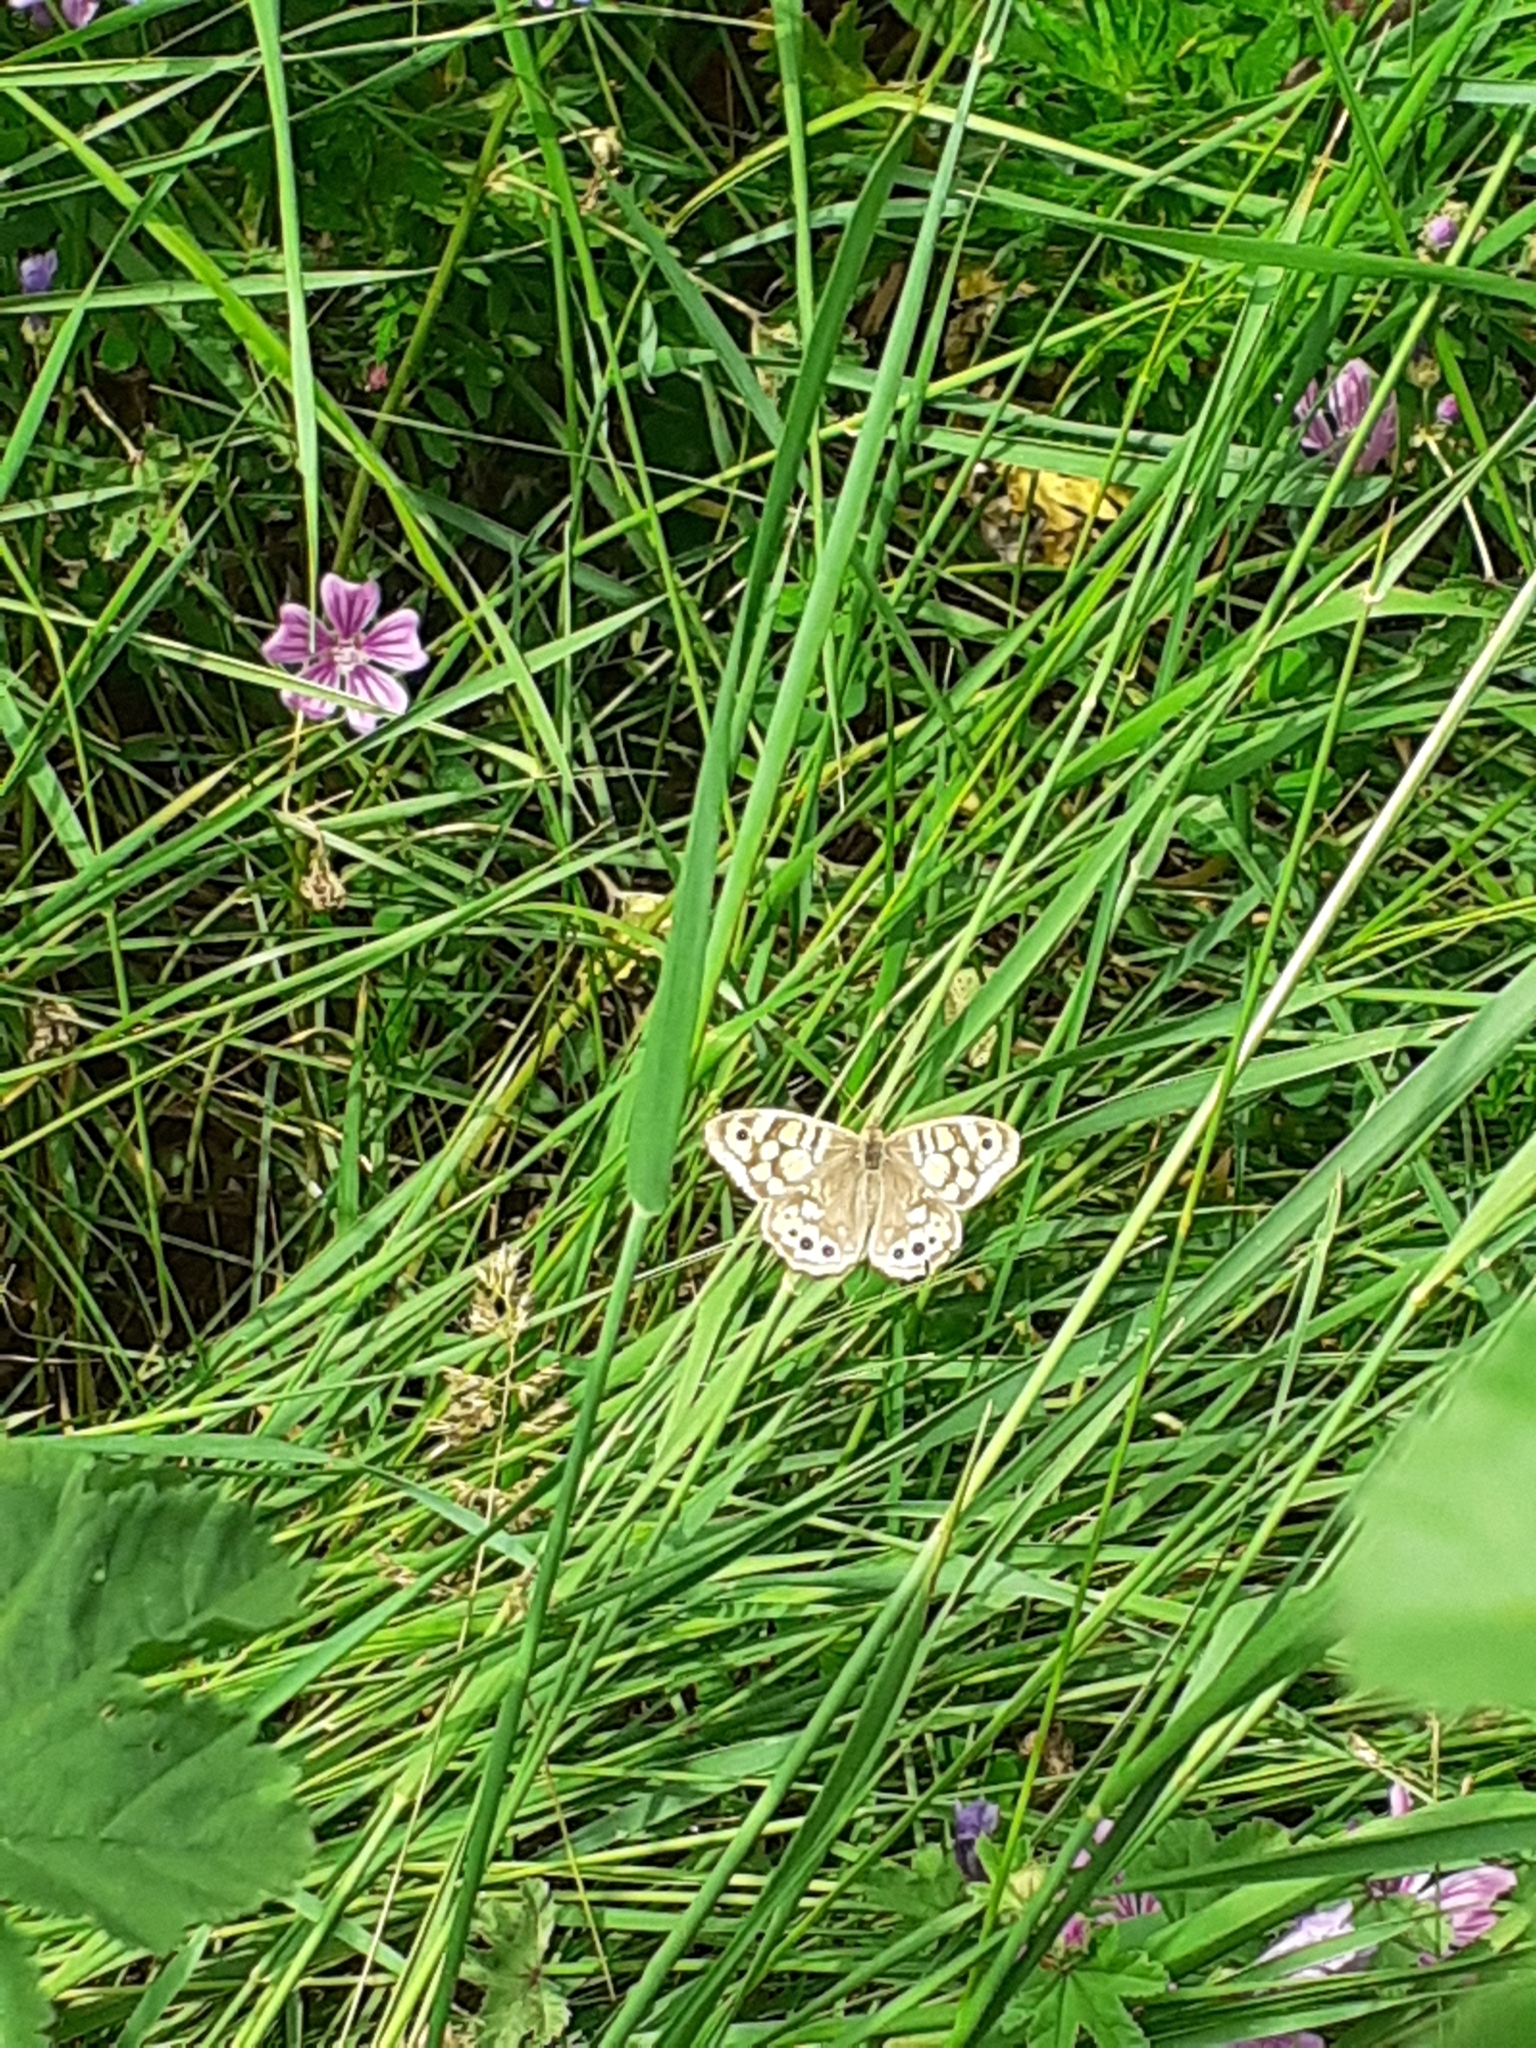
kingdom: Animalia
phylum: Arthropoda
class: Insecta
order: Lepidoptera
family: Nymphalidae
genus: Pararge
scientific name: Pararge aegeria
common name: Speckled wood
